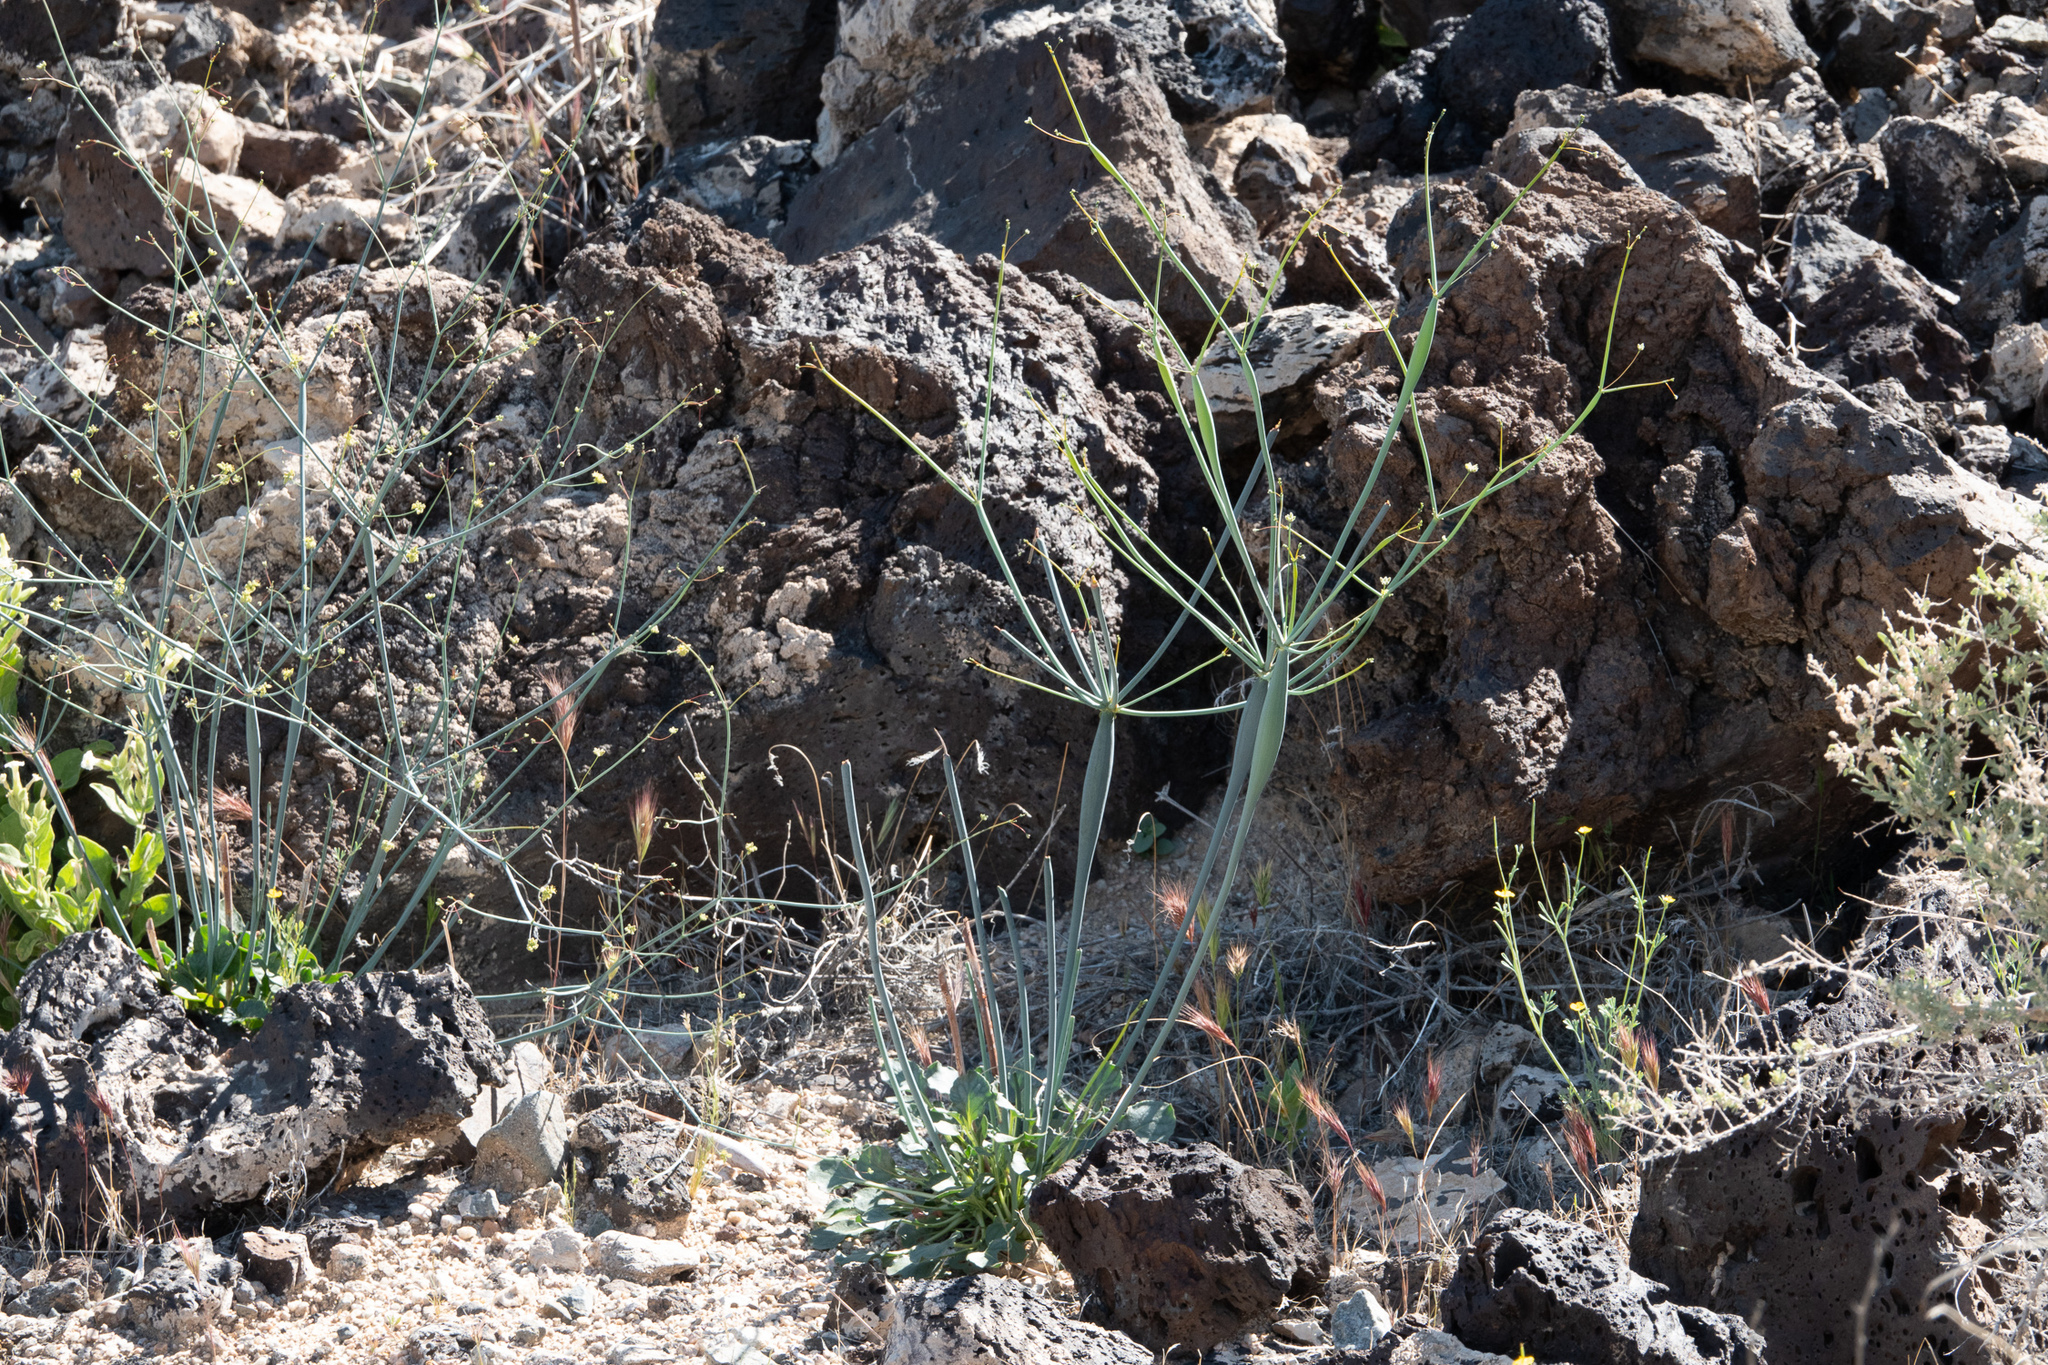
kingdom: Plantae
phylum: Tracheophyta
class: Magnoliopsida
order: Caryophyllales
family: Polygonaceae
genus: Eriogonum
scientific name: Eriogonum inflatum
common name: Desert trumpet
